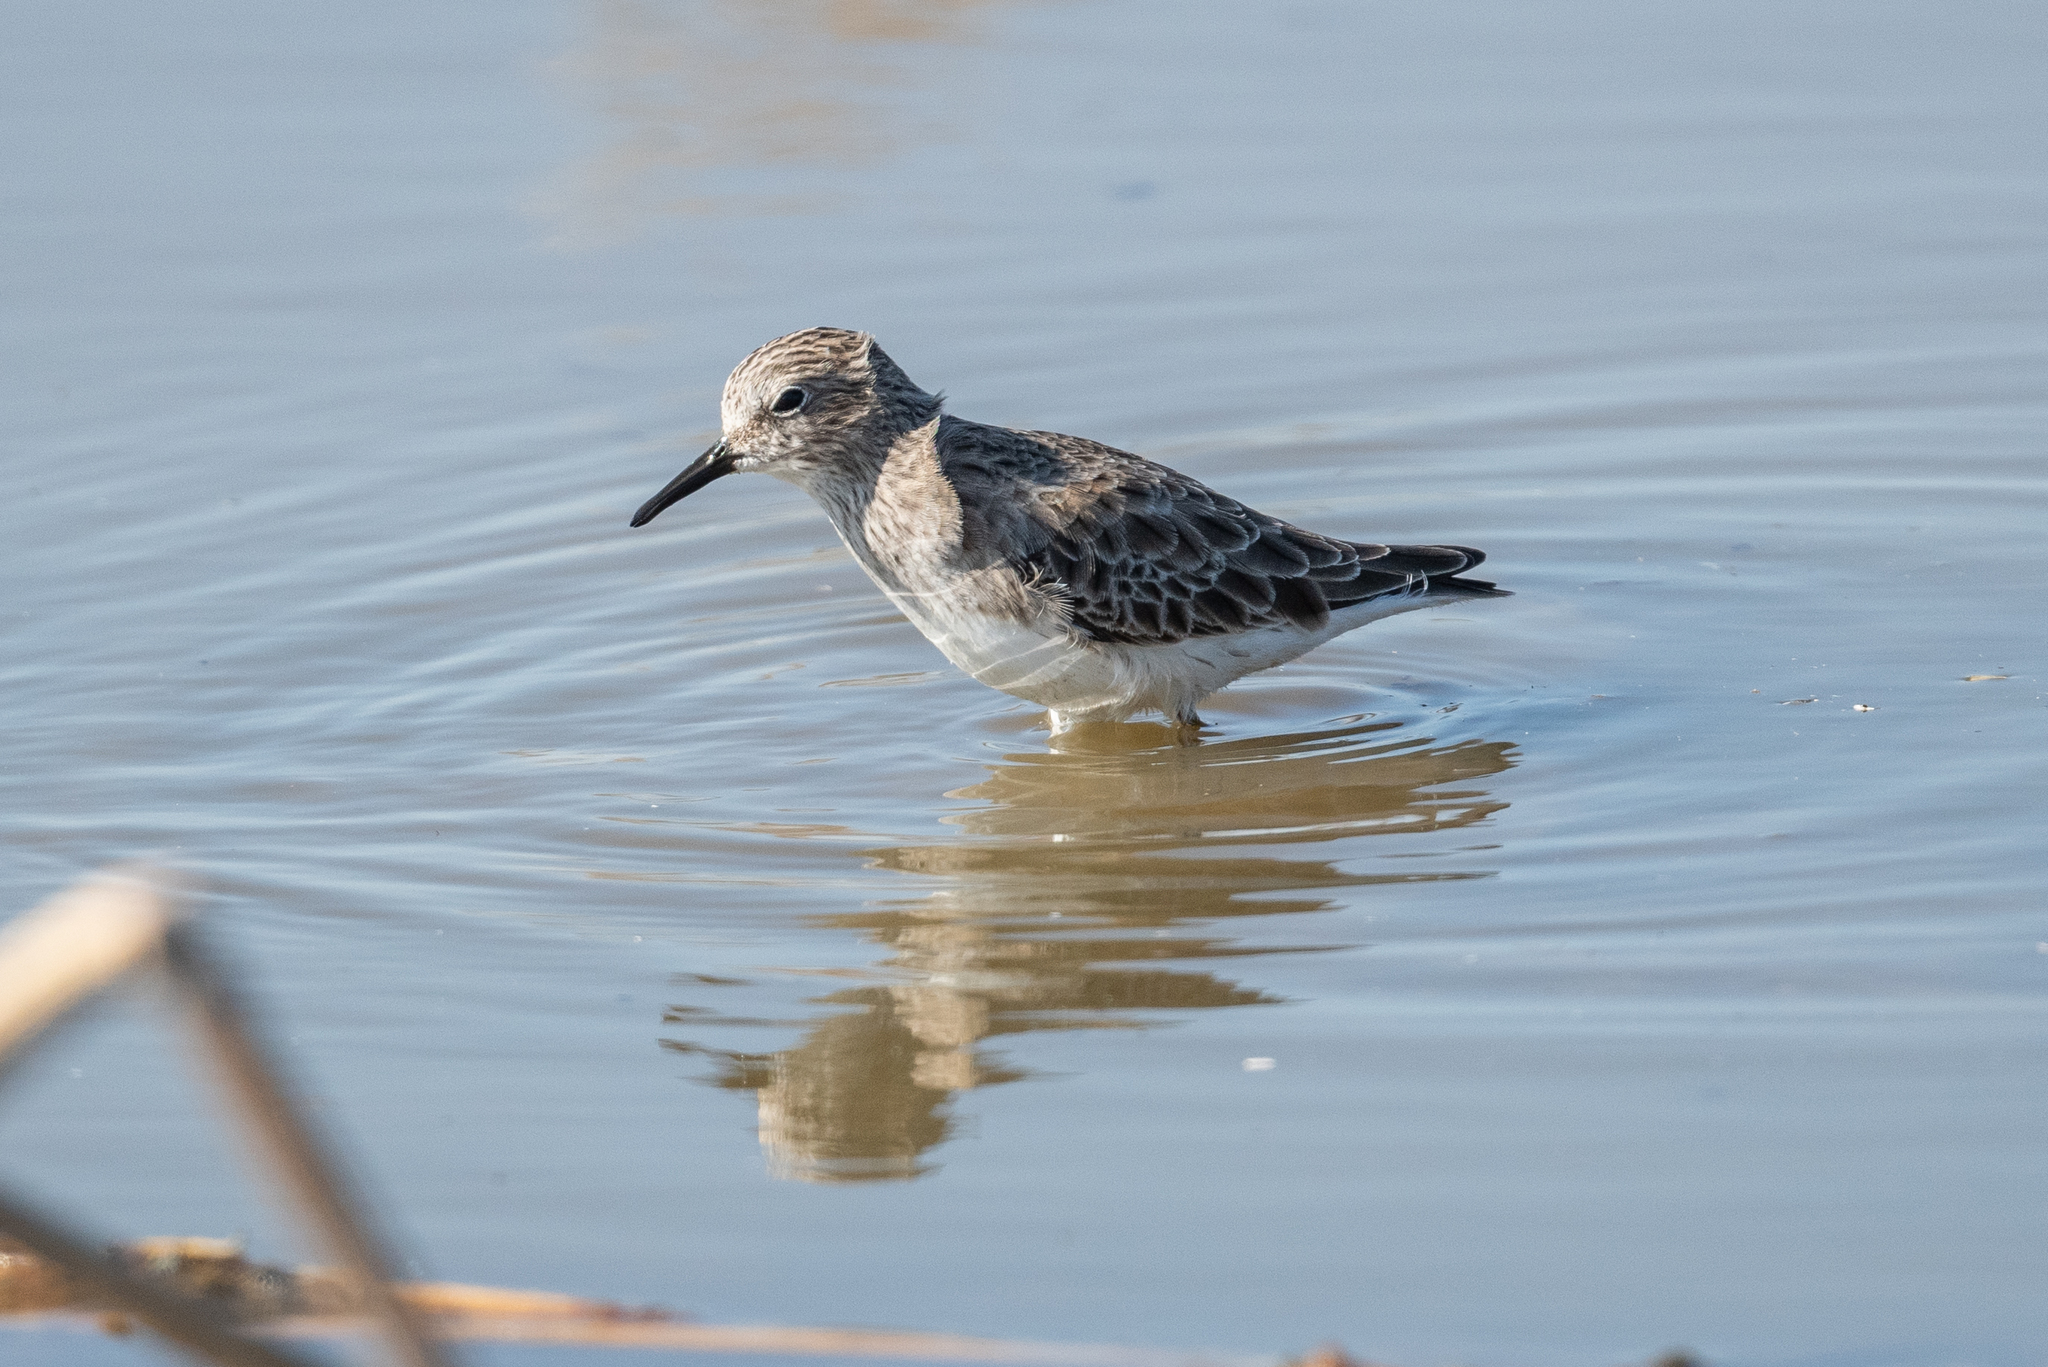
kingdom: Animalia
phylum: Chordata
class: Aves
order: Charadriiformes
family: Scolopacidae
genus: Calidris
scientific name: Calidris minutilla
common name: Least sandpiper
